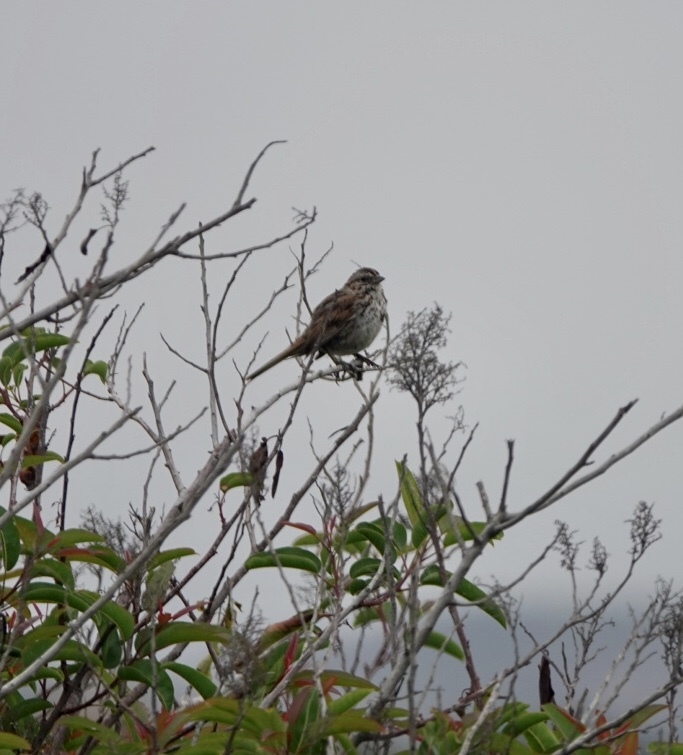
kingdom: Animalia
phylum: Chordata
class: Aves
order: Passeriformes
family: Passerellidae
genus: Melospiza
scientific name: Melospiza melodia
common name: Song sparrow
